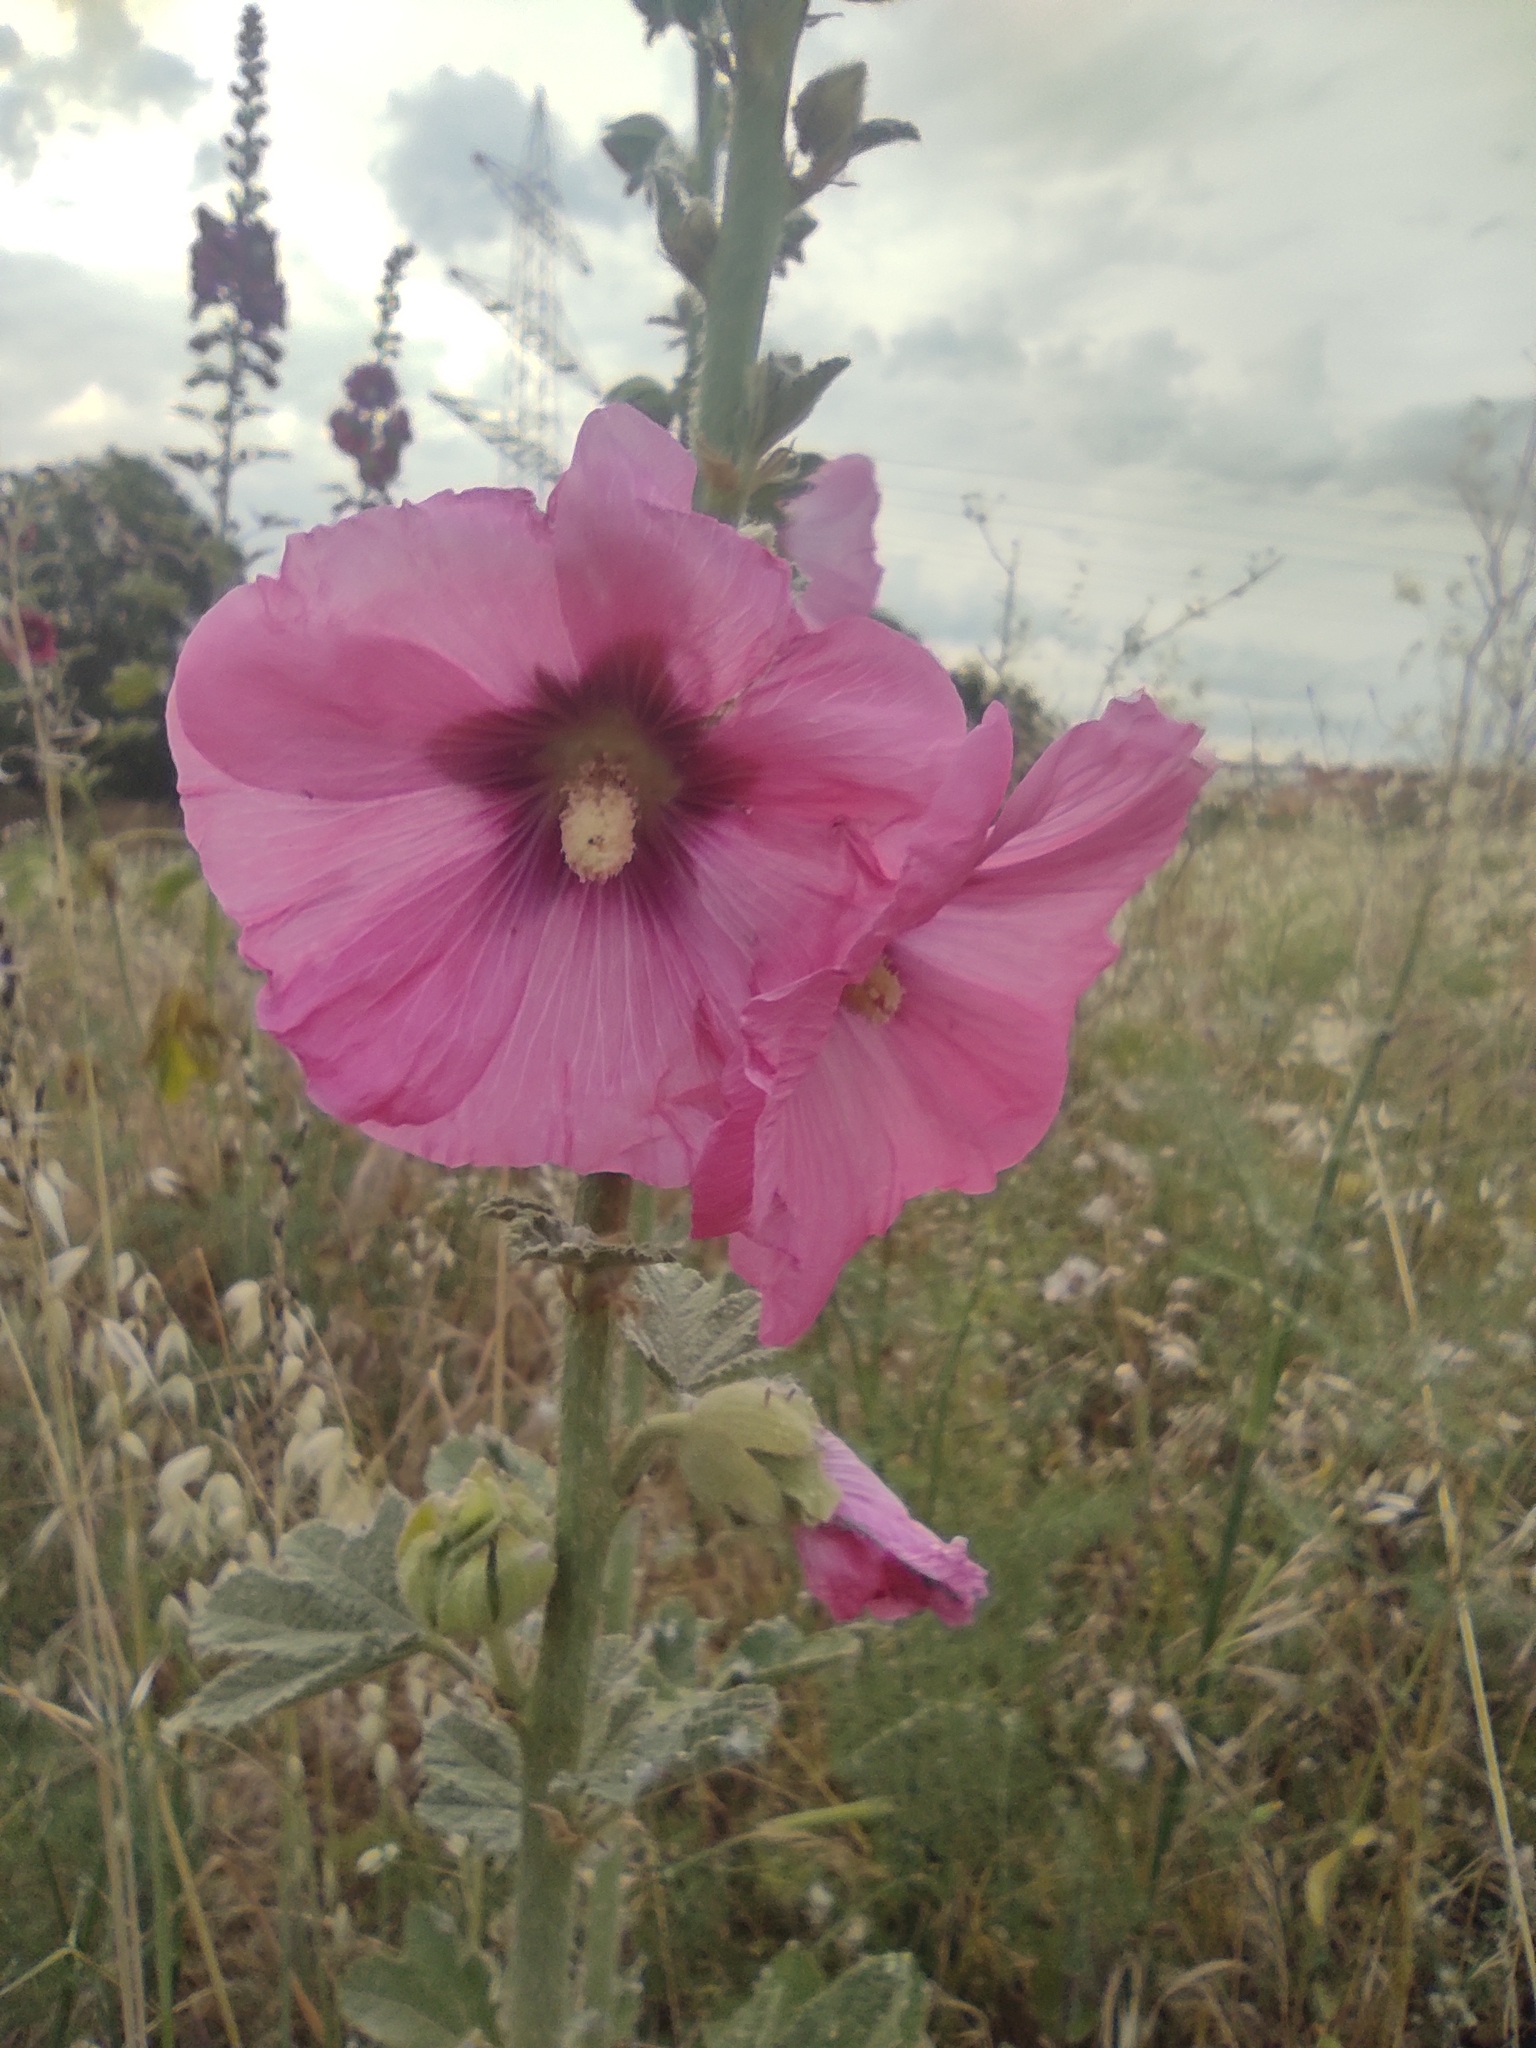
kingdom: Plantae
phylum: Tracheophyta
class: Magnoliopsida
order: Malvales
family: Malvaceae
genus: Alcea
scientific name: Alcea rosea
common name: Hollyhock
